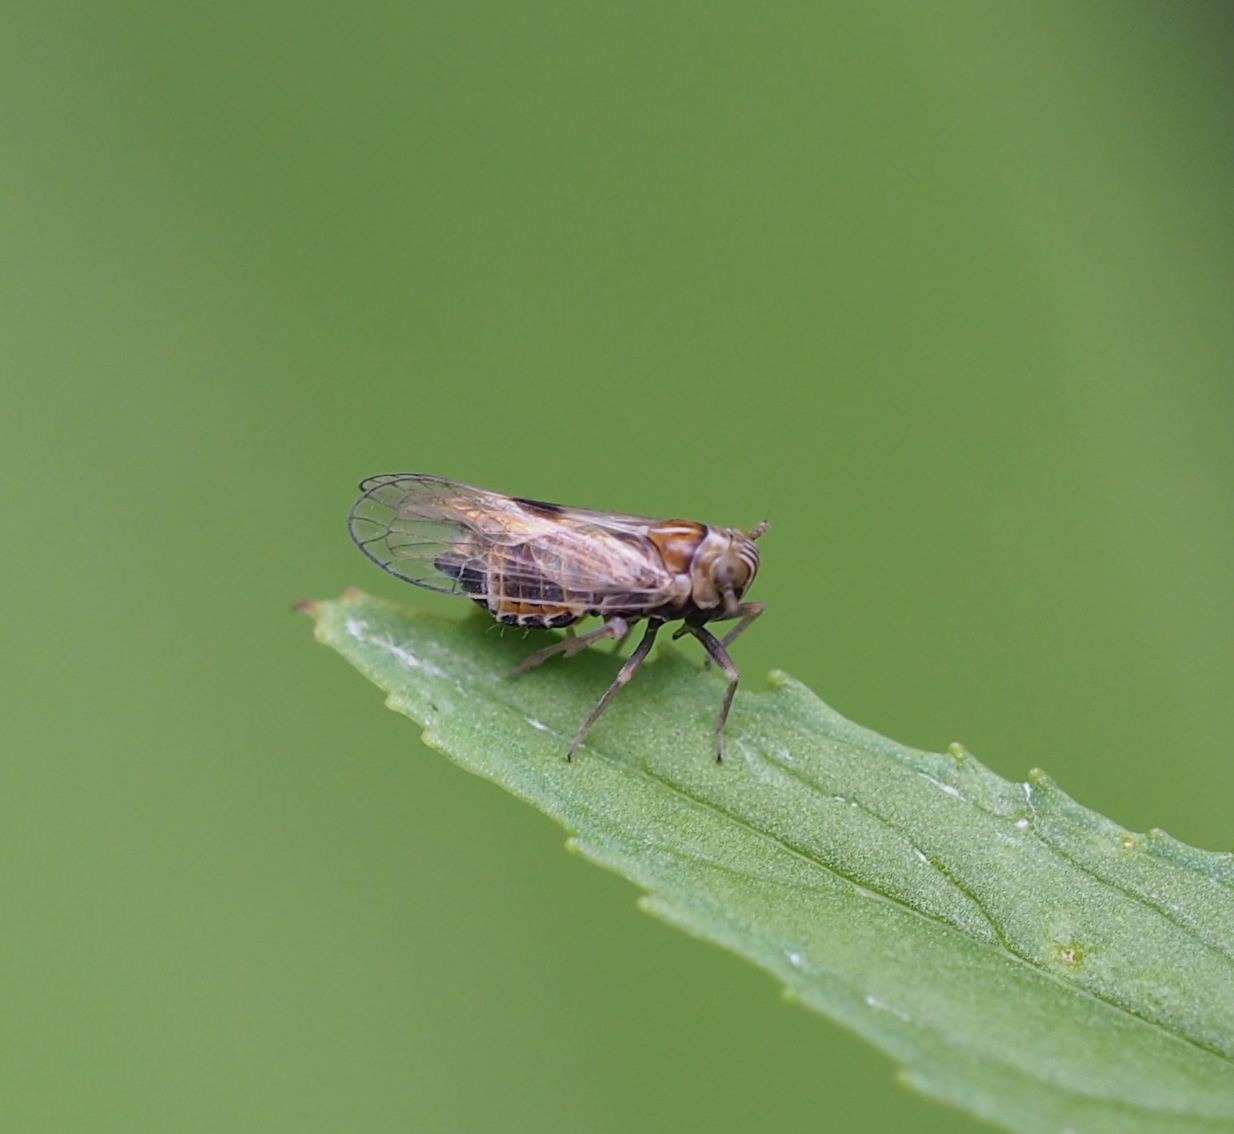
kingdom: Animalia
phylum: Arthropoda
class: Insecta
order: Hemiptera
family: Delphacidae
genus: Dicranotropis
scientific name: Dicranotropis hamata
